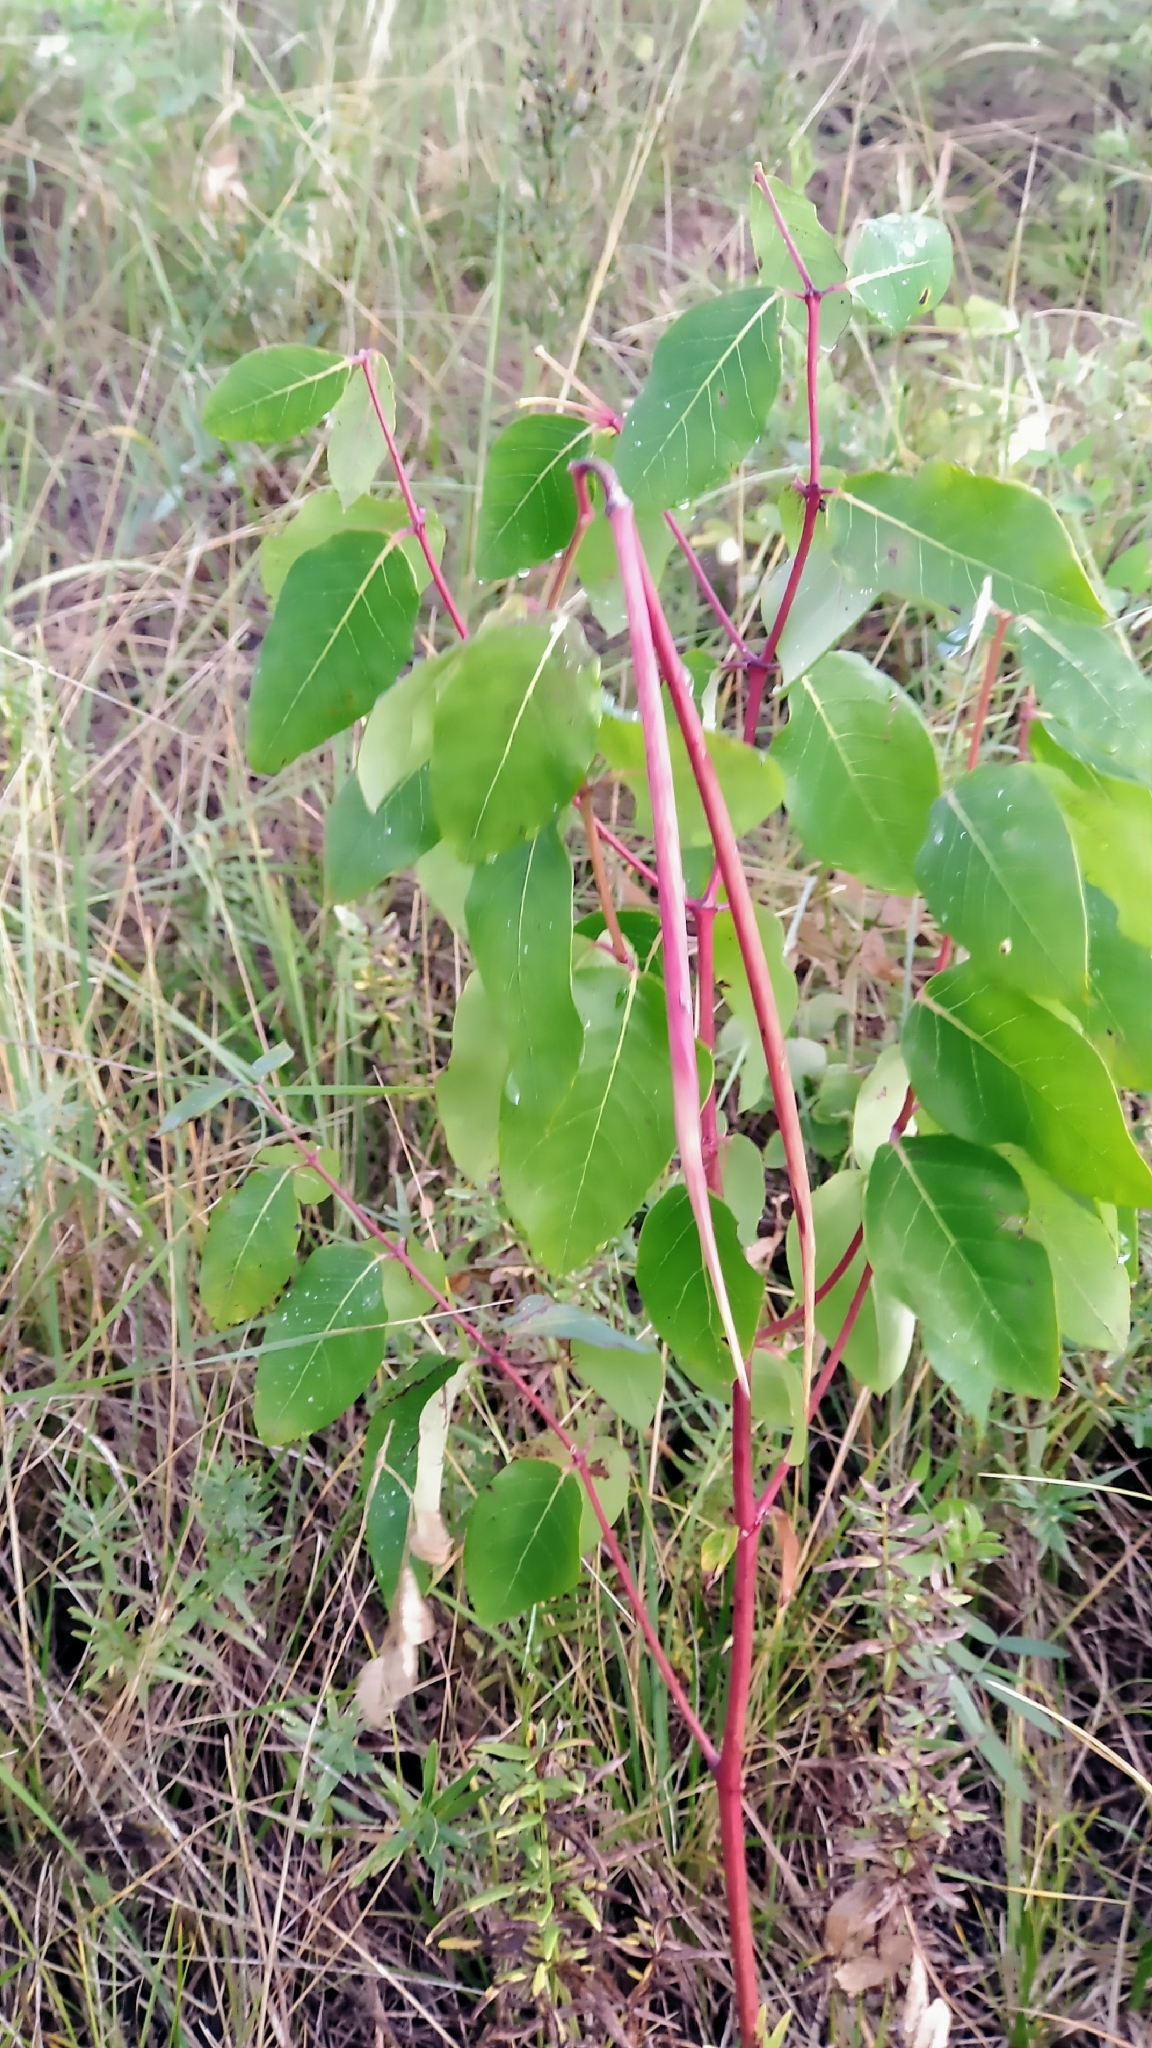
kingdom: Plantae
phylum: Tracheophyta
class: Magnoliopsida
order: Gentianales
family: Apocynaceae
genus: Apocynum
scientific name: Apocynum androsaemifolium
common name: Spreading dogbane
